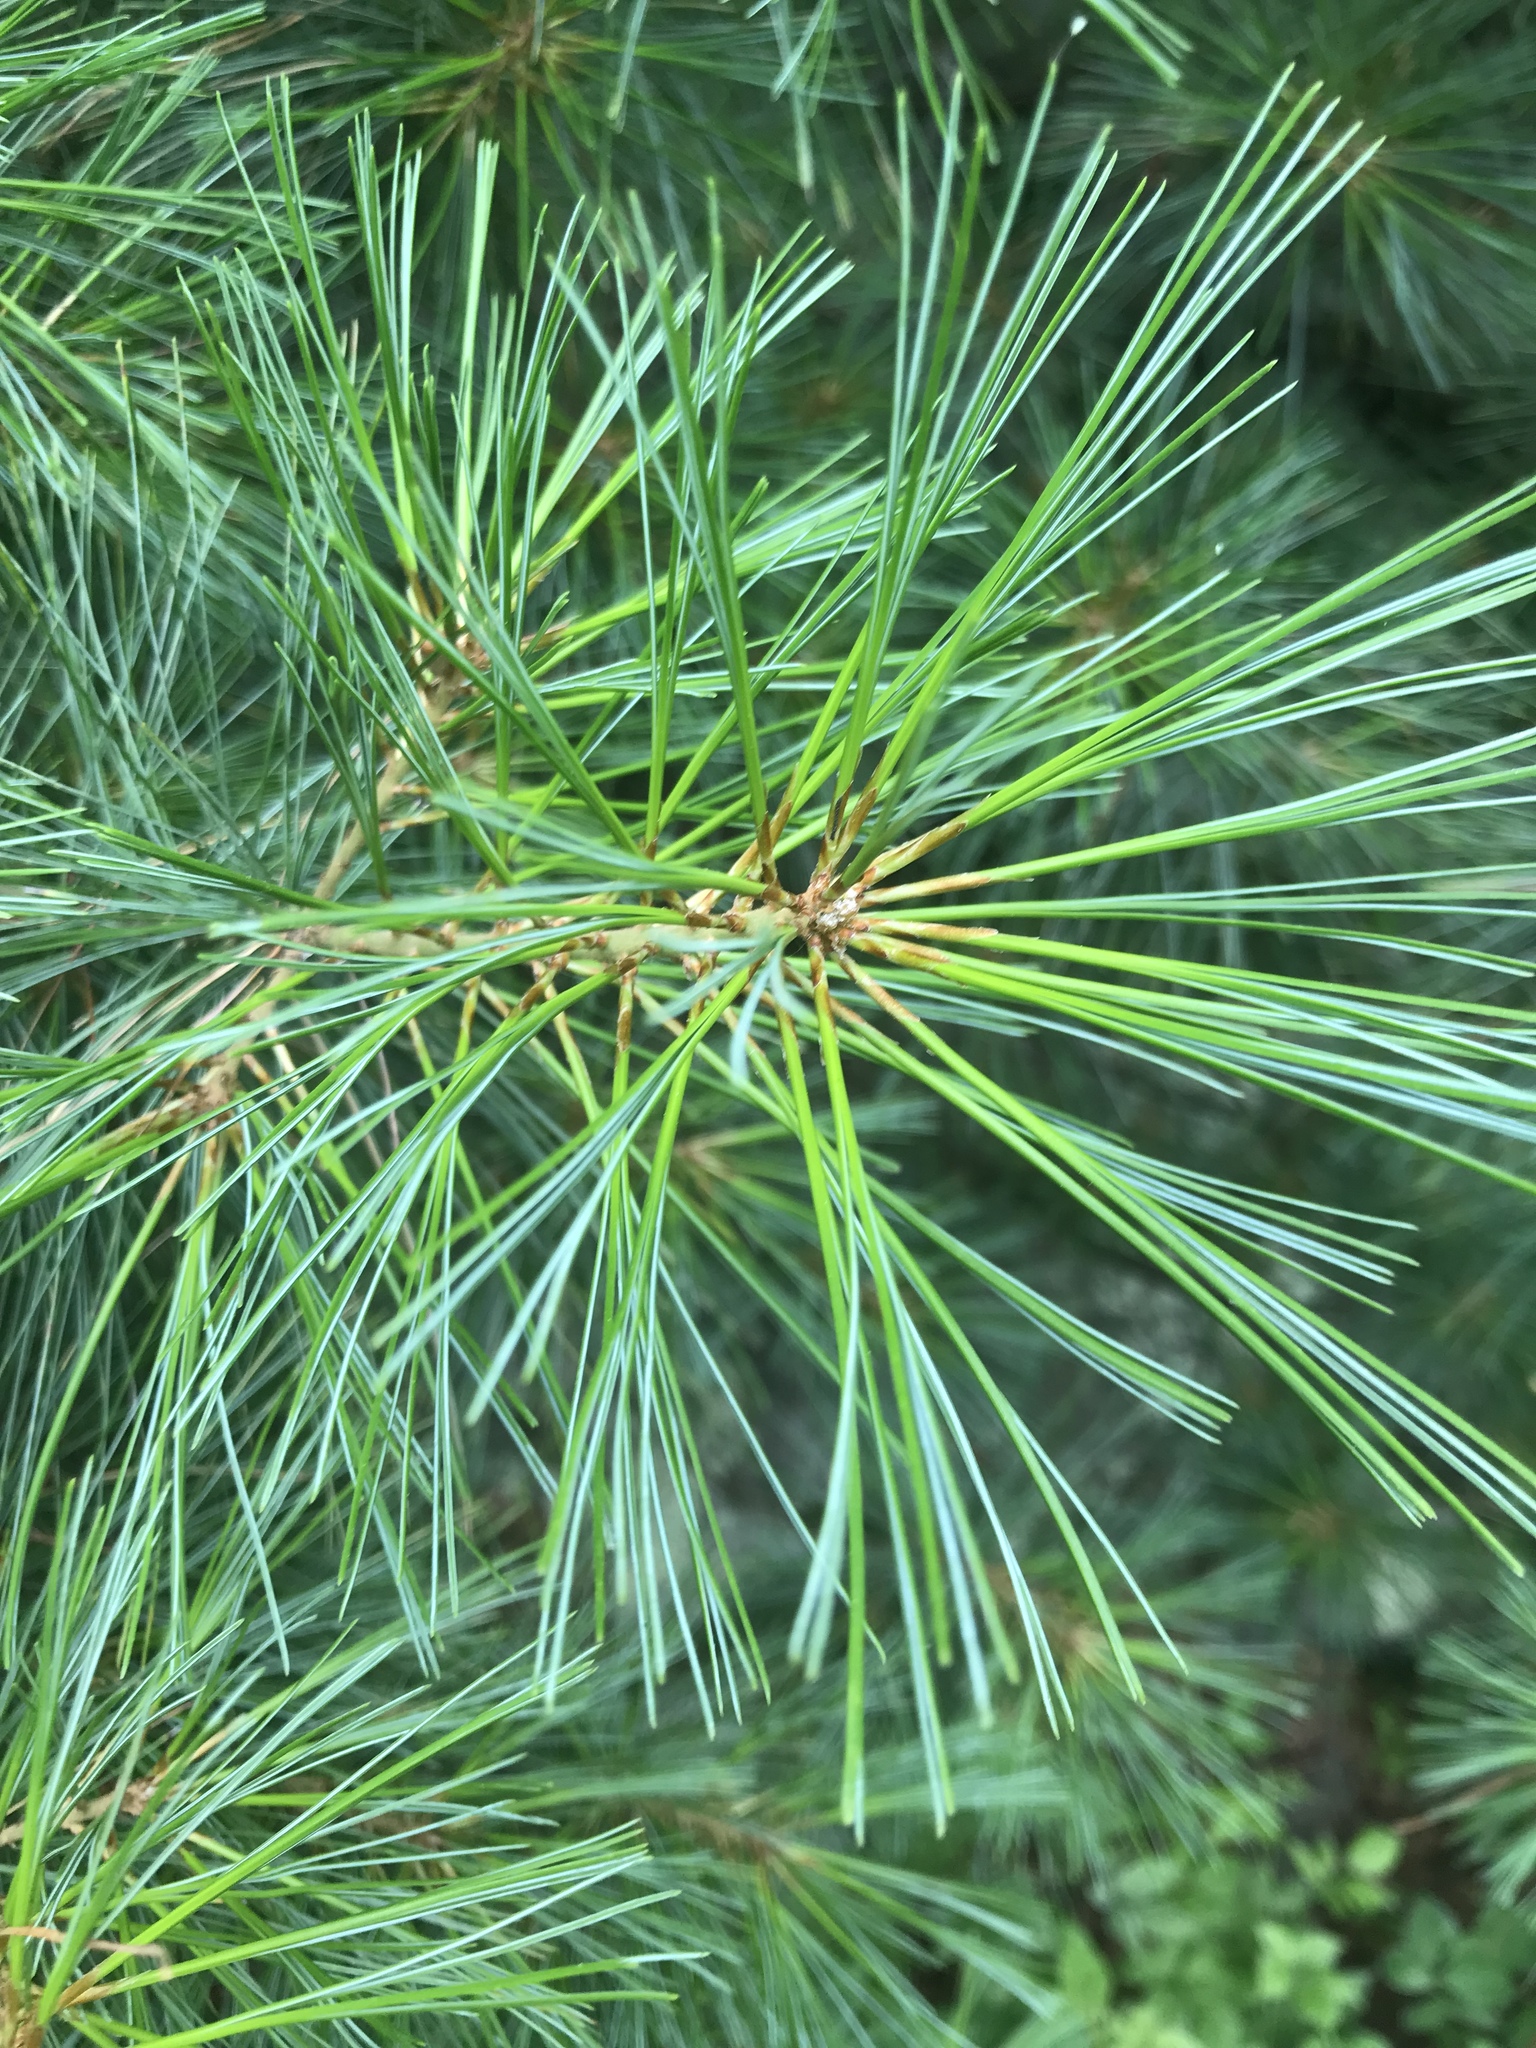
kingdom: Plantae
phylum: Tracheophyta
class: Pinopsida
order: Pinales
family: Pinaceae
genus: Pinus
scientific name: Pinus strobus
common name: Weymouth pine
